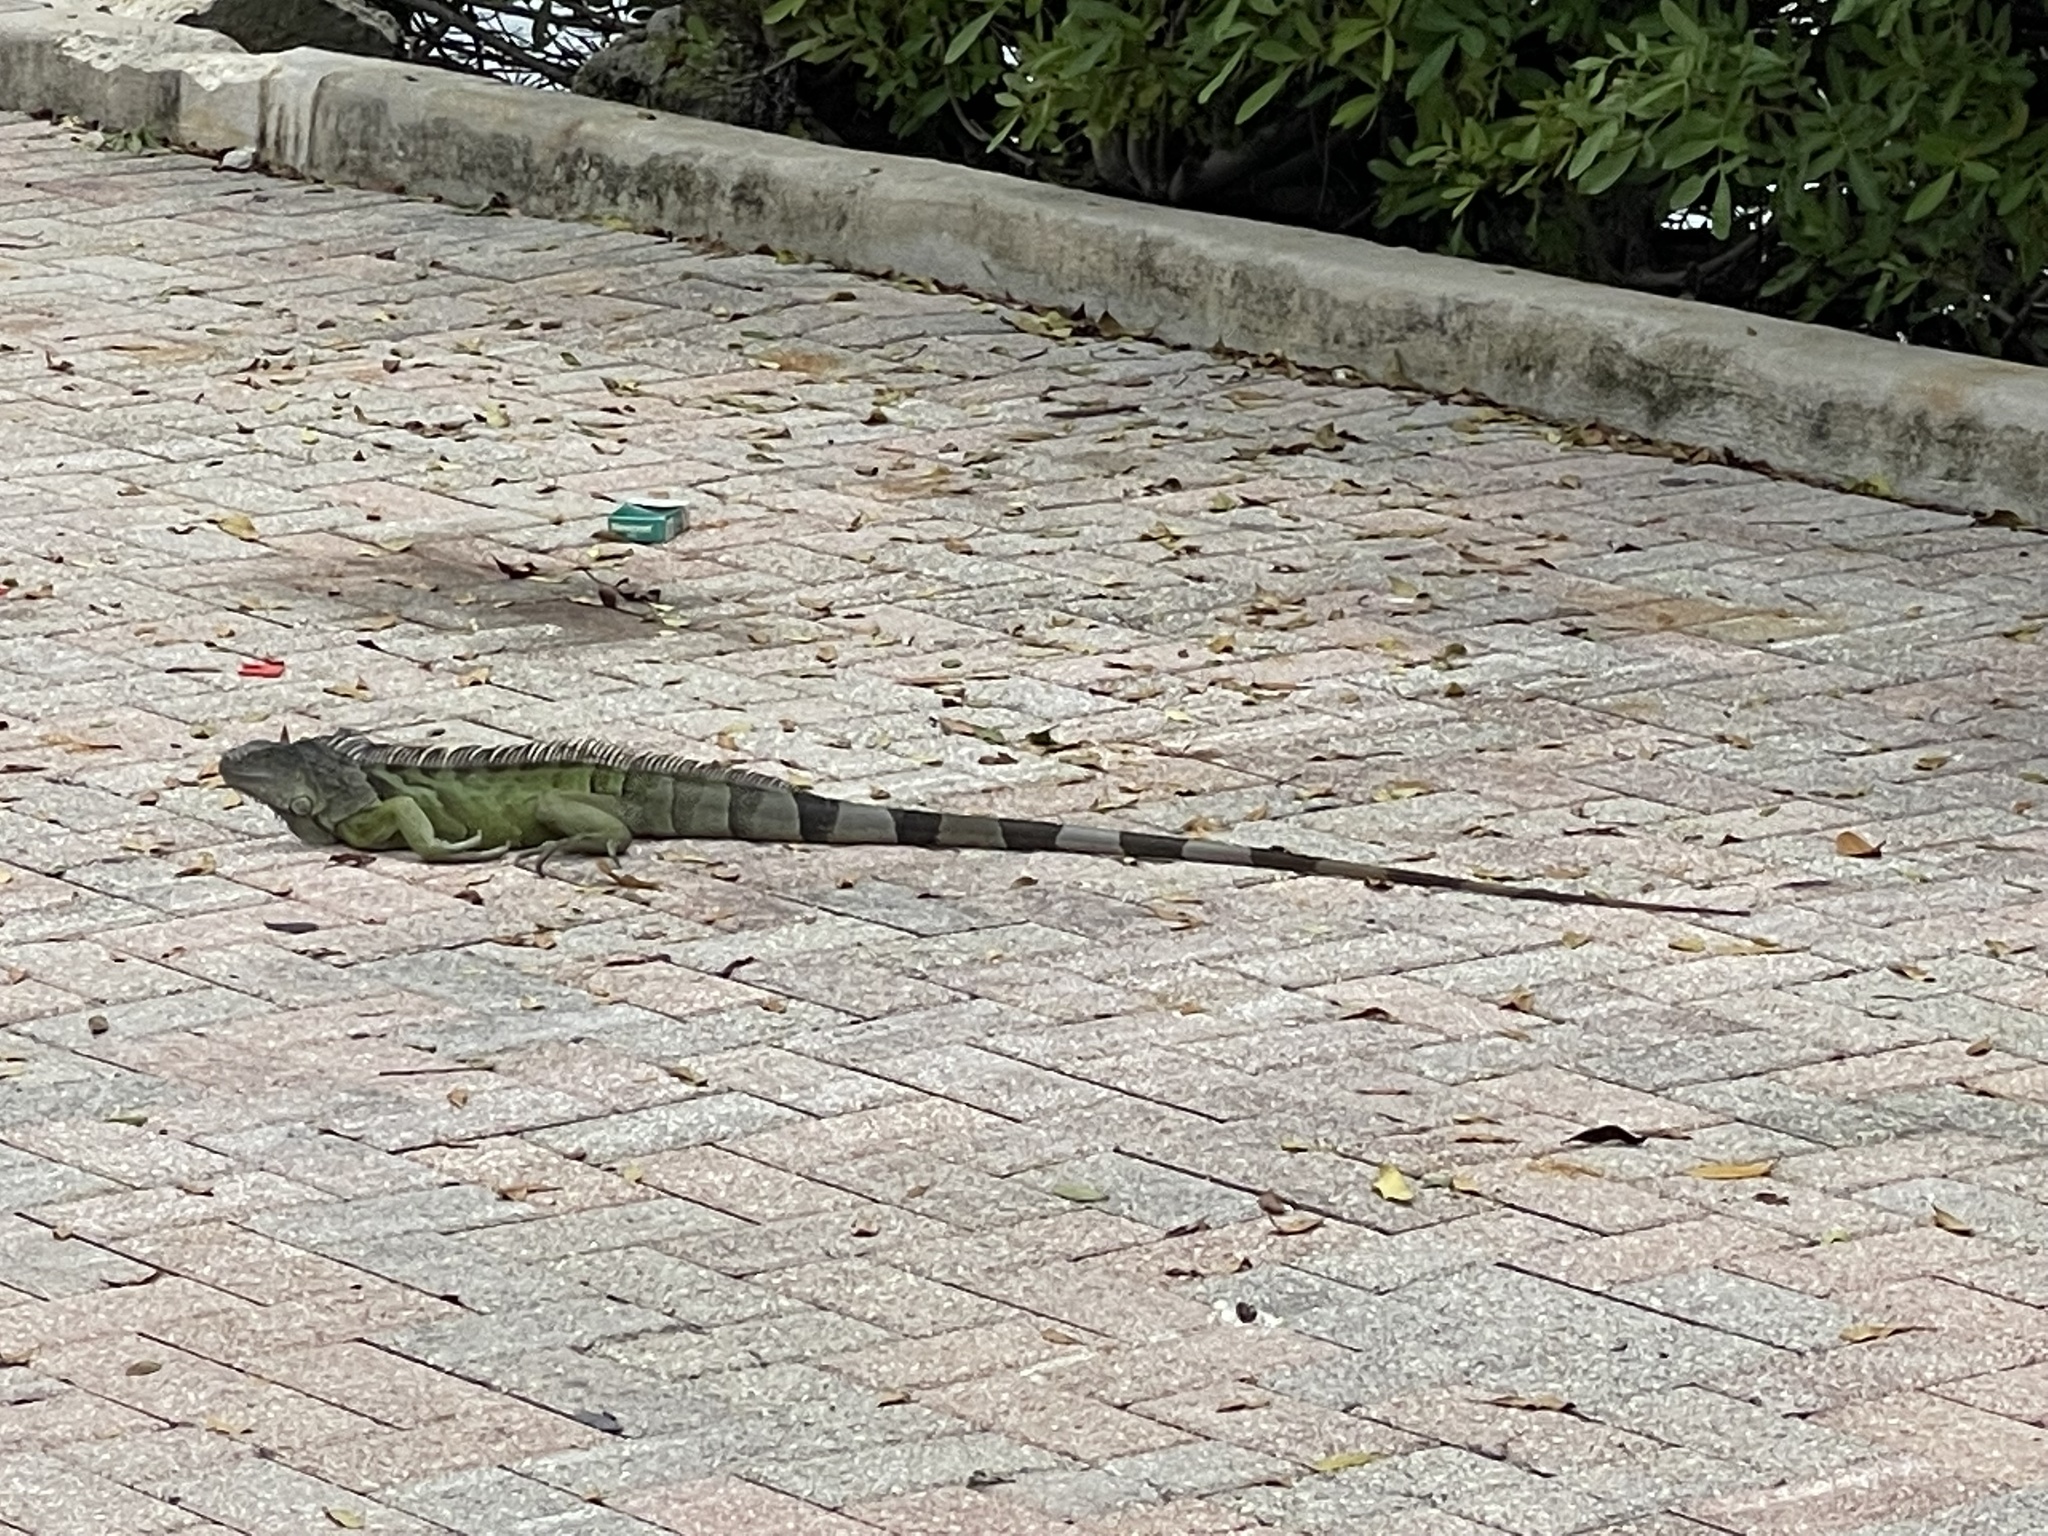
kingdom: Animalia
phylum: Chordata
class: Squamata
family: Iguanidae
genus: Iguana
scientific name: Iguana iguana
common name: Green iguana
